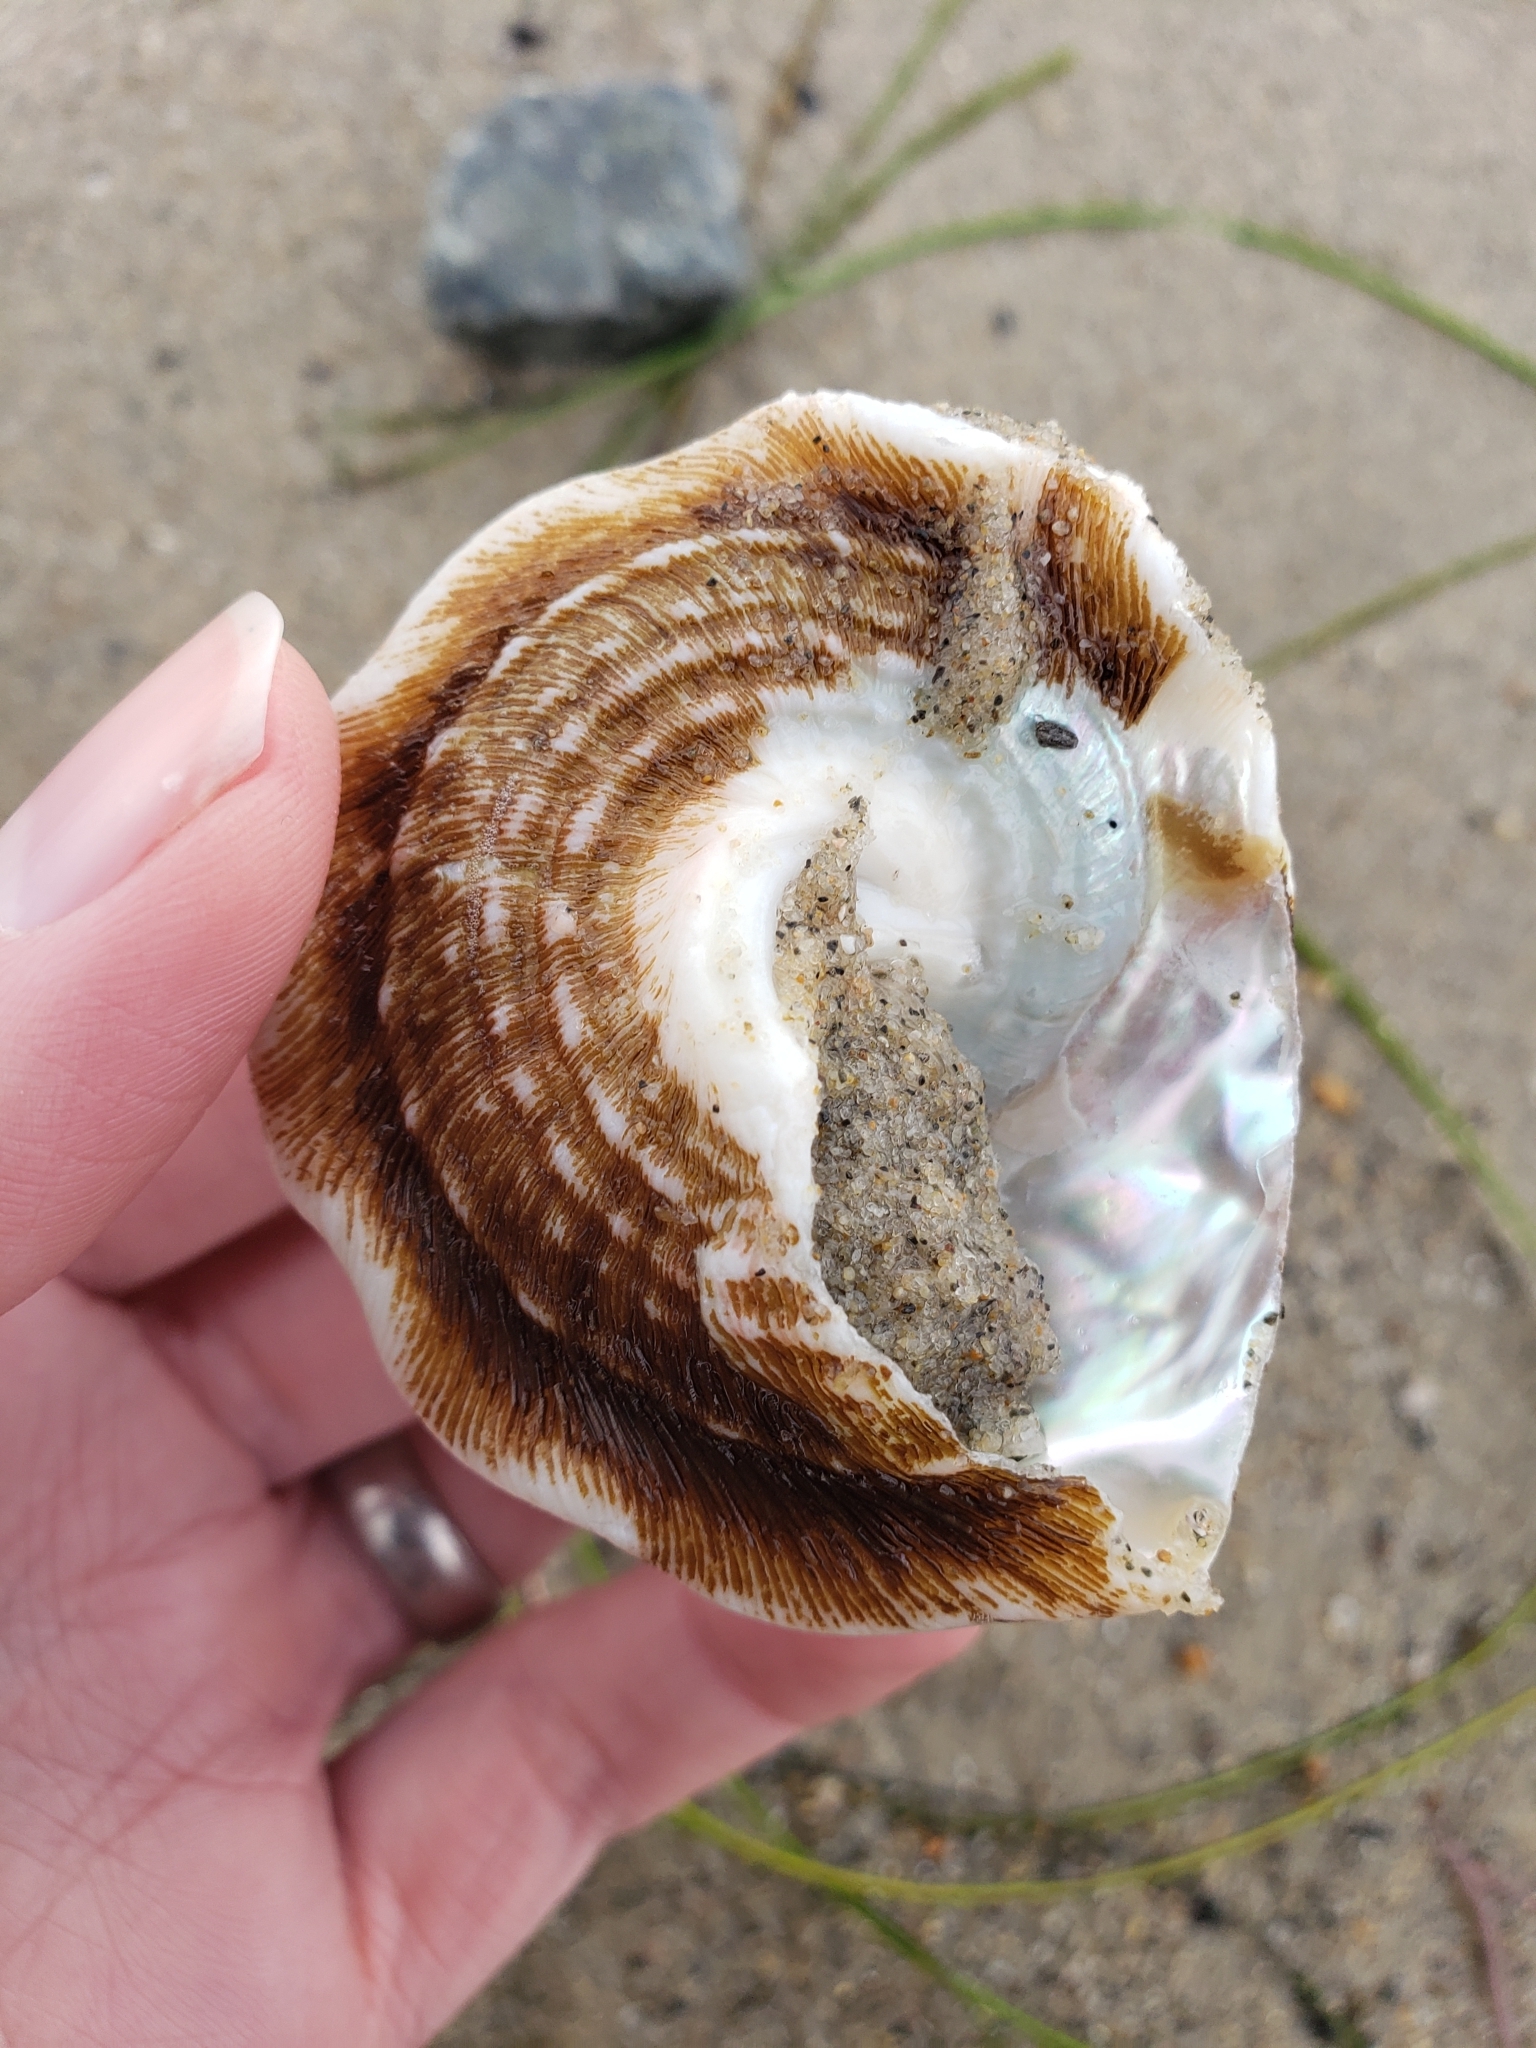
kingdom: Animalia
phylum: Mollusca
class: Gastropoda
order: Trochida
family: Turbinidae
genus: Megastraea
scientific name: Megastraea undosa
